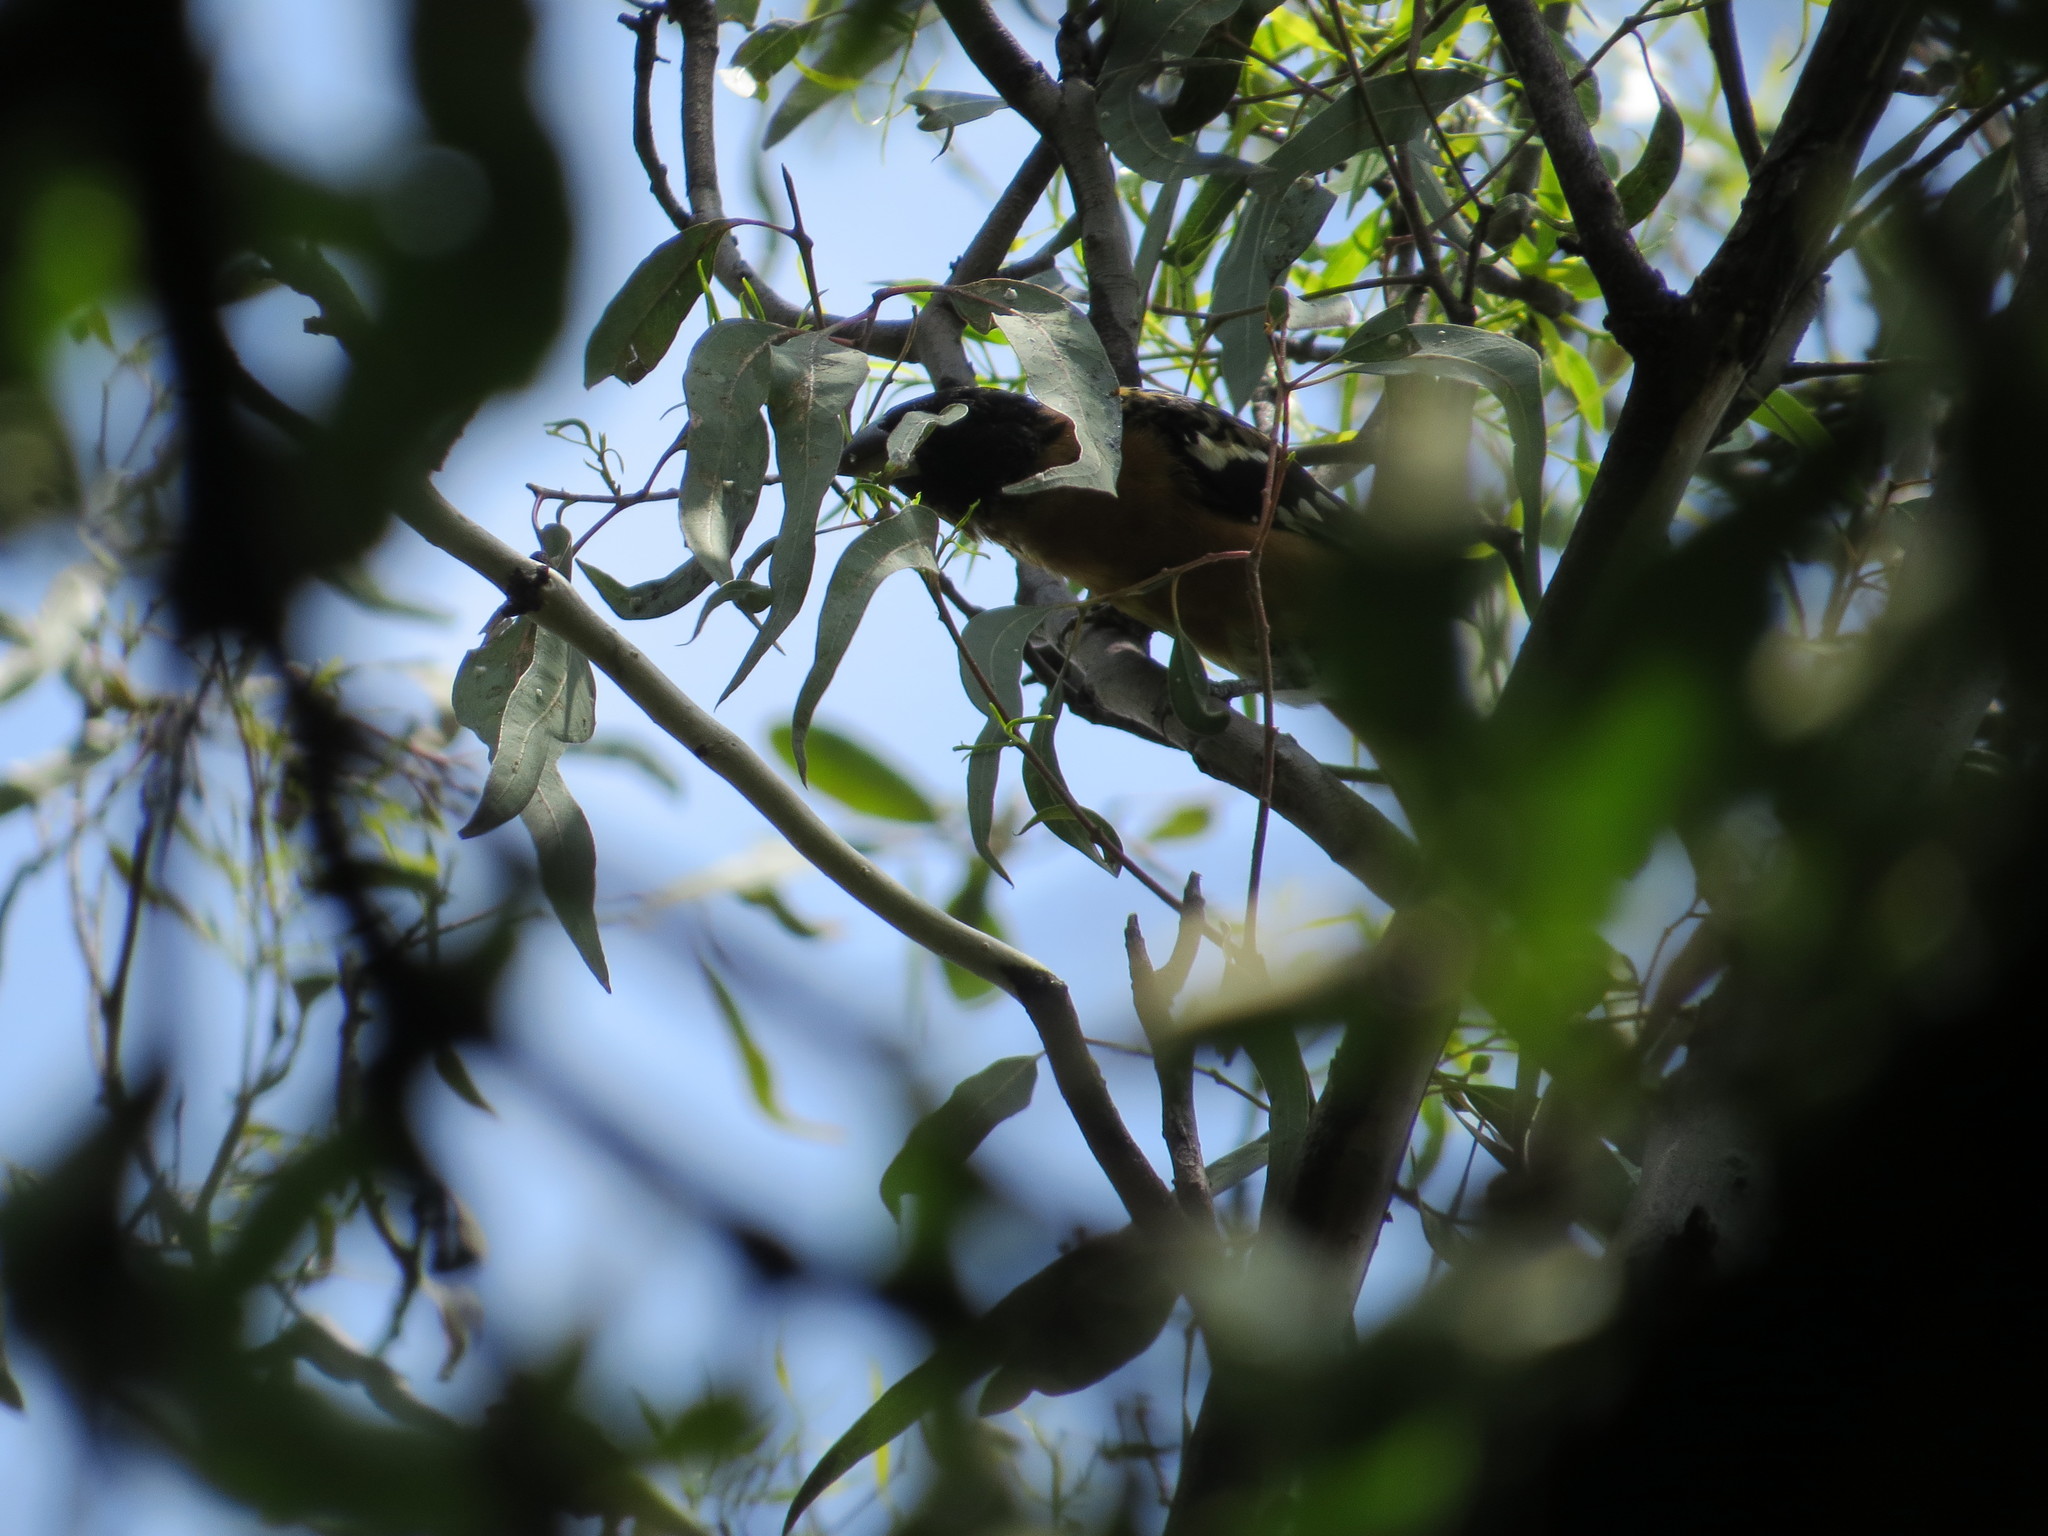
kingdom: Animalia
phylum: Chordata
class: Aves
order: Passeriformes
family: Cardinalidae
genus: Pheucticus
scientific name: Pheucticus melanocephalus
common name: Black-headed grosbeak
